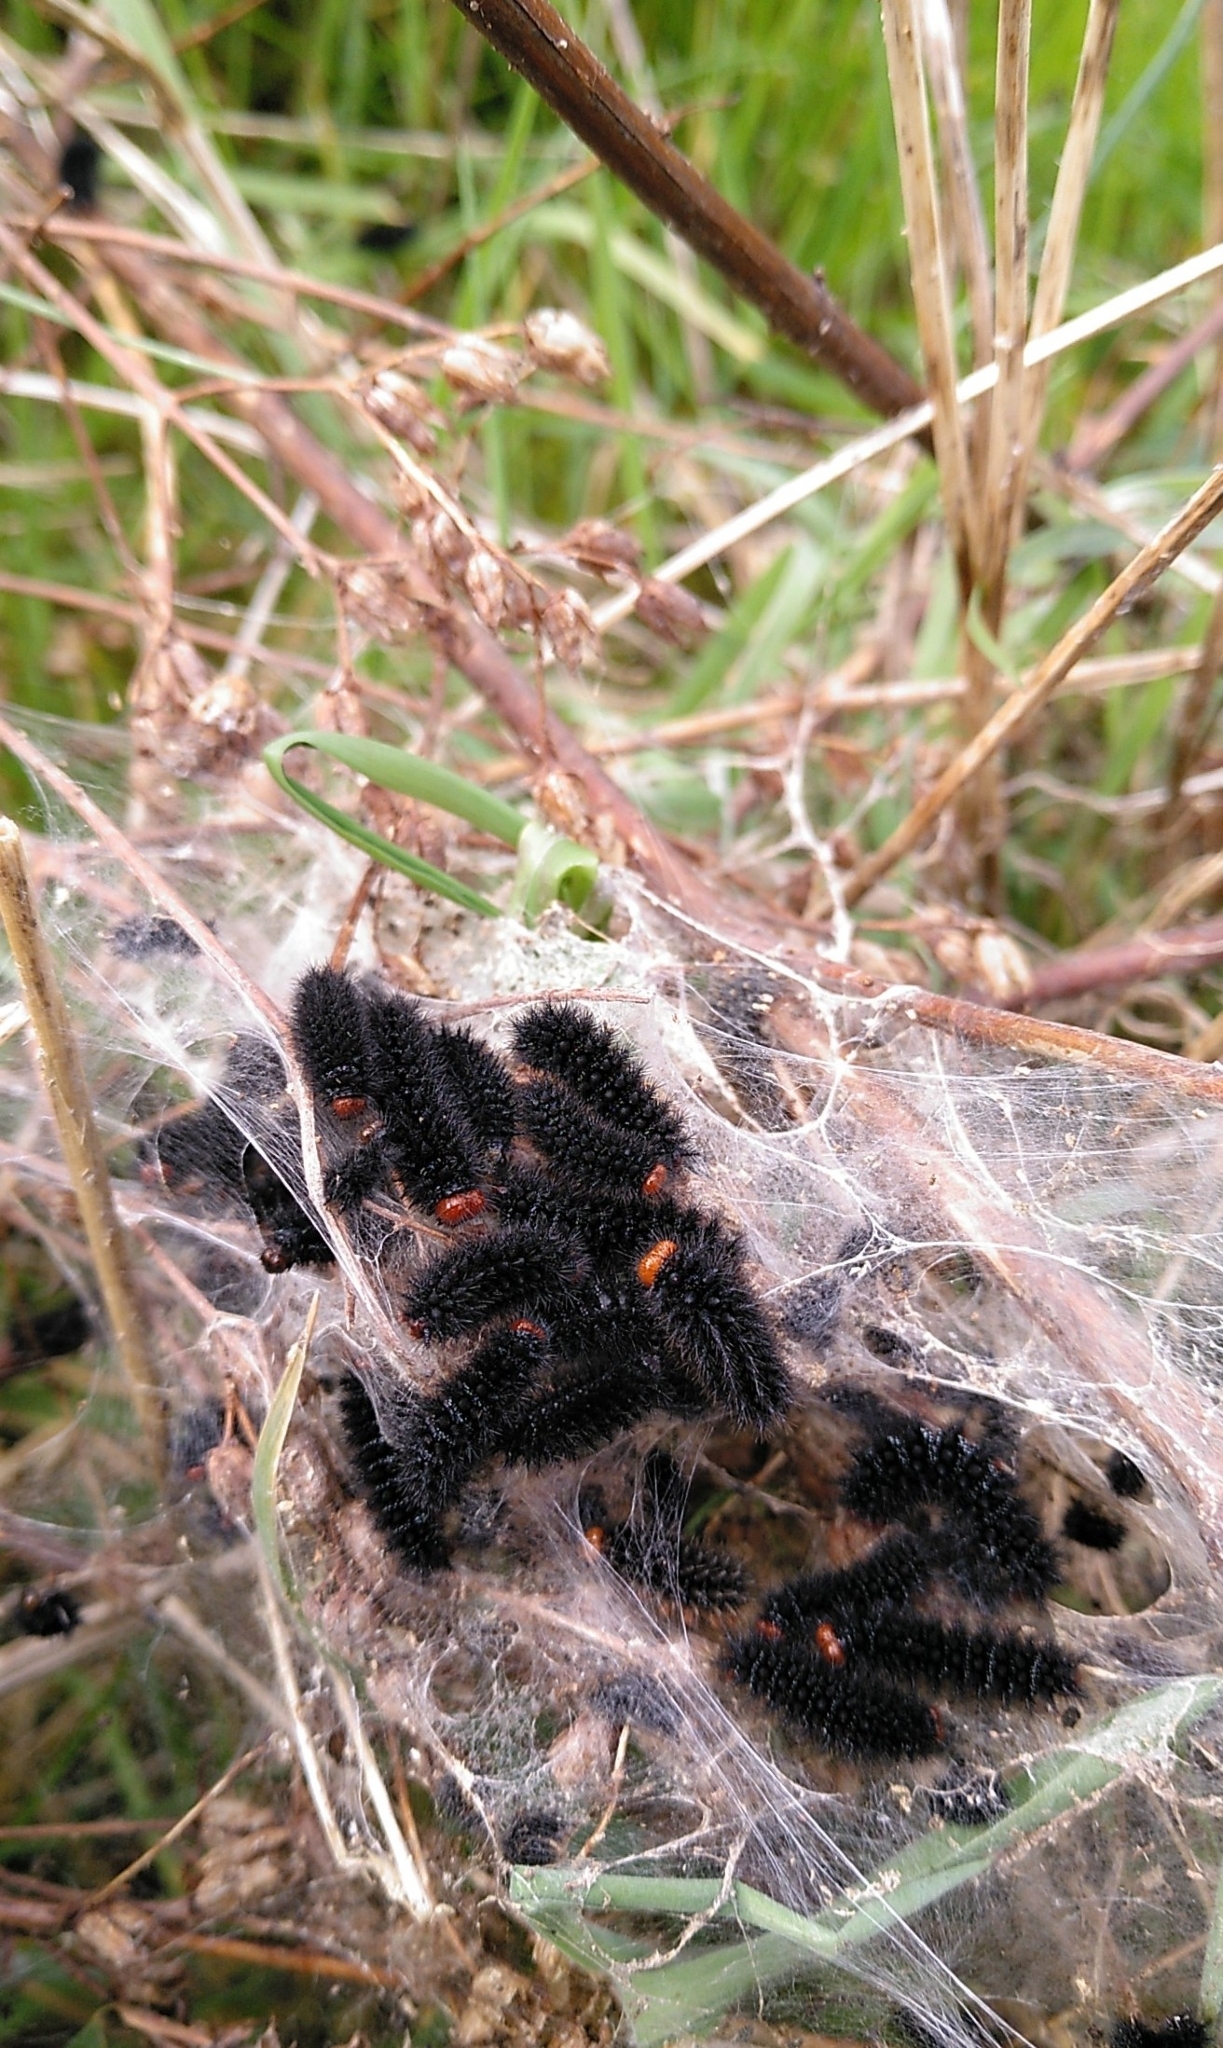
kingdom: Animalia
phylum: Arthropoda
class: Insecta
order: Lepidoptera
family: Nymphalidae
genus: Melitaea
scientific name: Melitaea cinxia
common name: Glanville fritillary
